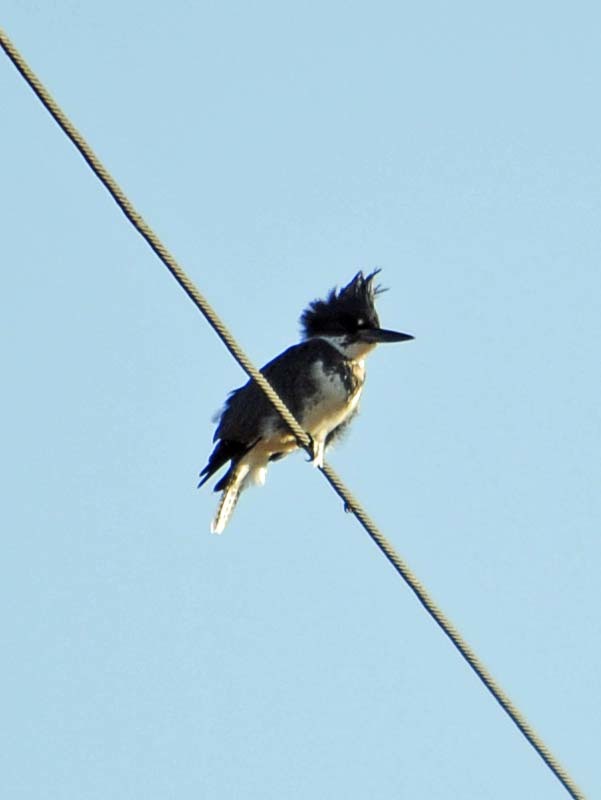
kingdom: Animalia
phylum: Chordata
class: Aves
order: Coraciiformes
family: Alcedinidae
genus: Megaceryle
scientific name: Megaceryle alcyon
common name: Belted kingfisher
